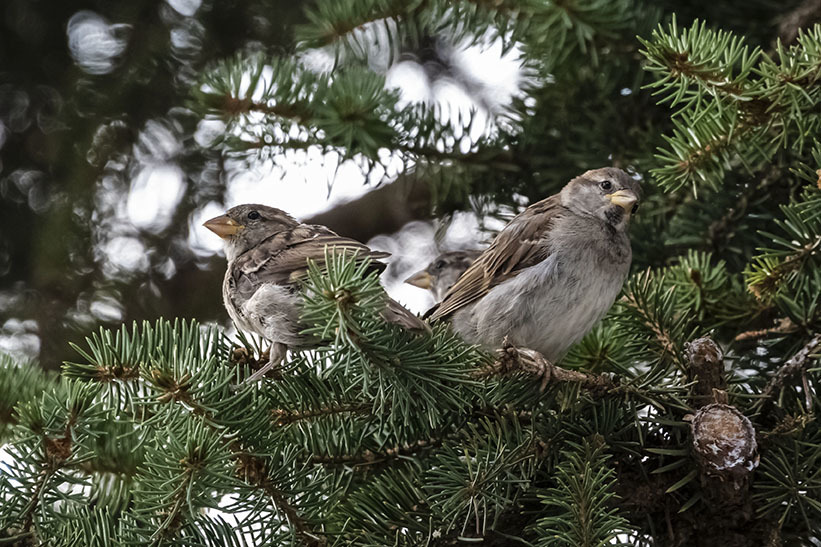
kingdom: Animalia
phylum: Chordata
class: Aves
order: Passeriformes
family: Passeridae
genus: Passer
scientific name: Passer domesticus
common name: House sparrow
